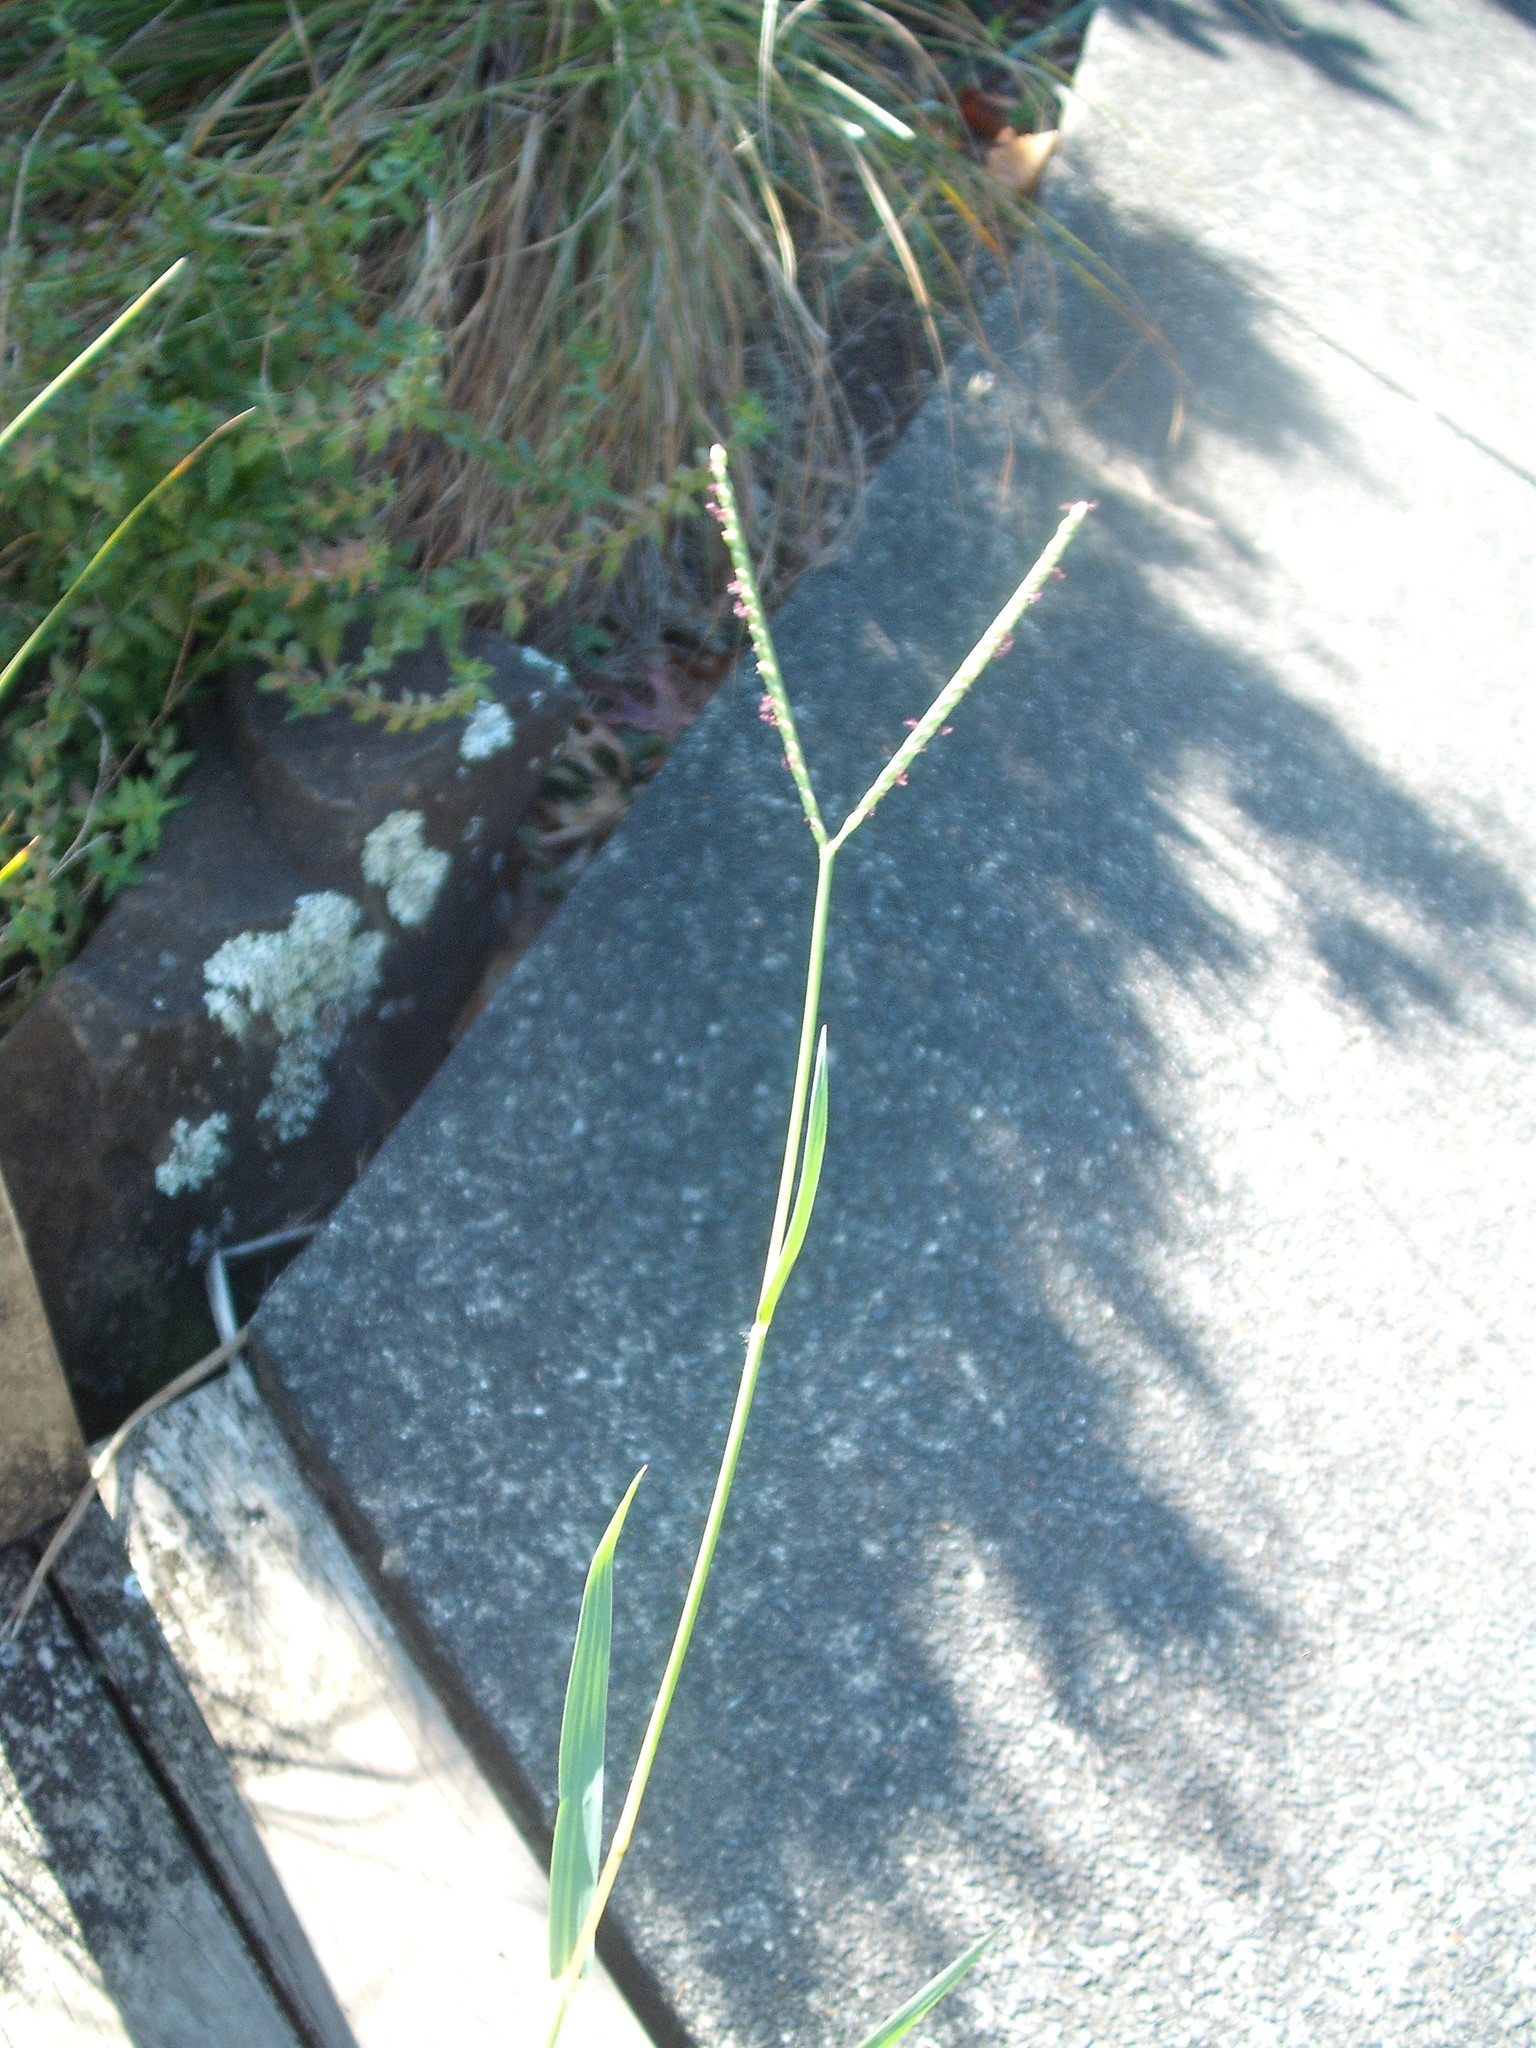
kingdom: Plantae
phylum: Tracheophyta
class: Liliopsida
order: Poales
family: Poaceae
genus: Paspalum
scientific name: Paspalum distichum
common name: Knotgrass
